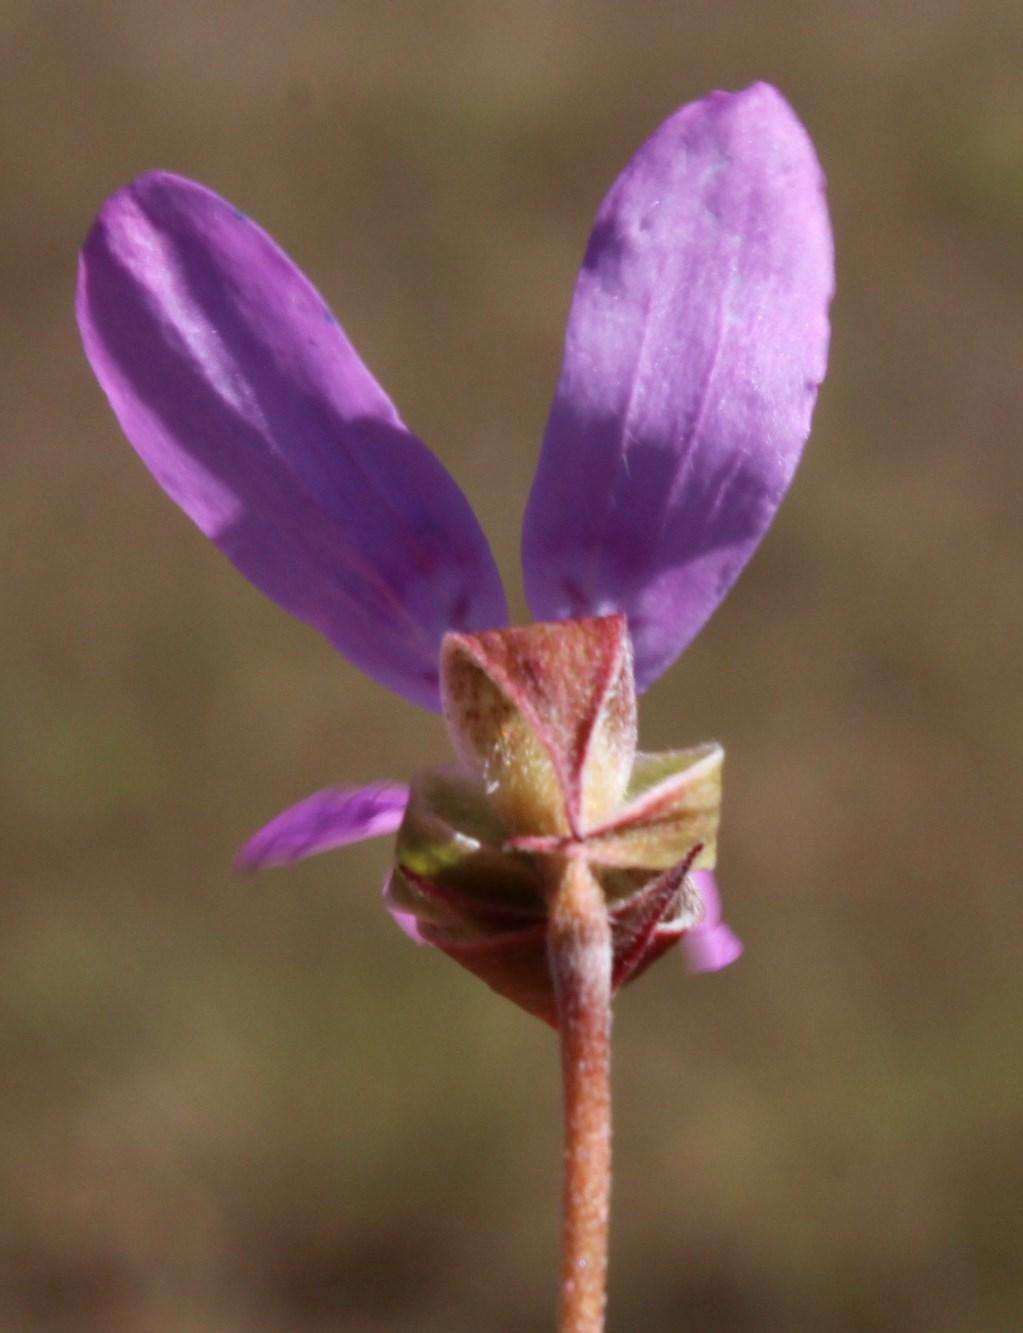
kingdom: Plantae
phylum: Tracheophyta
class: Magnoliopsida
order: Geraniales
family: Geraniaceae
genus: Pelargonium
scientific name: Pelargonium coronopifolium
